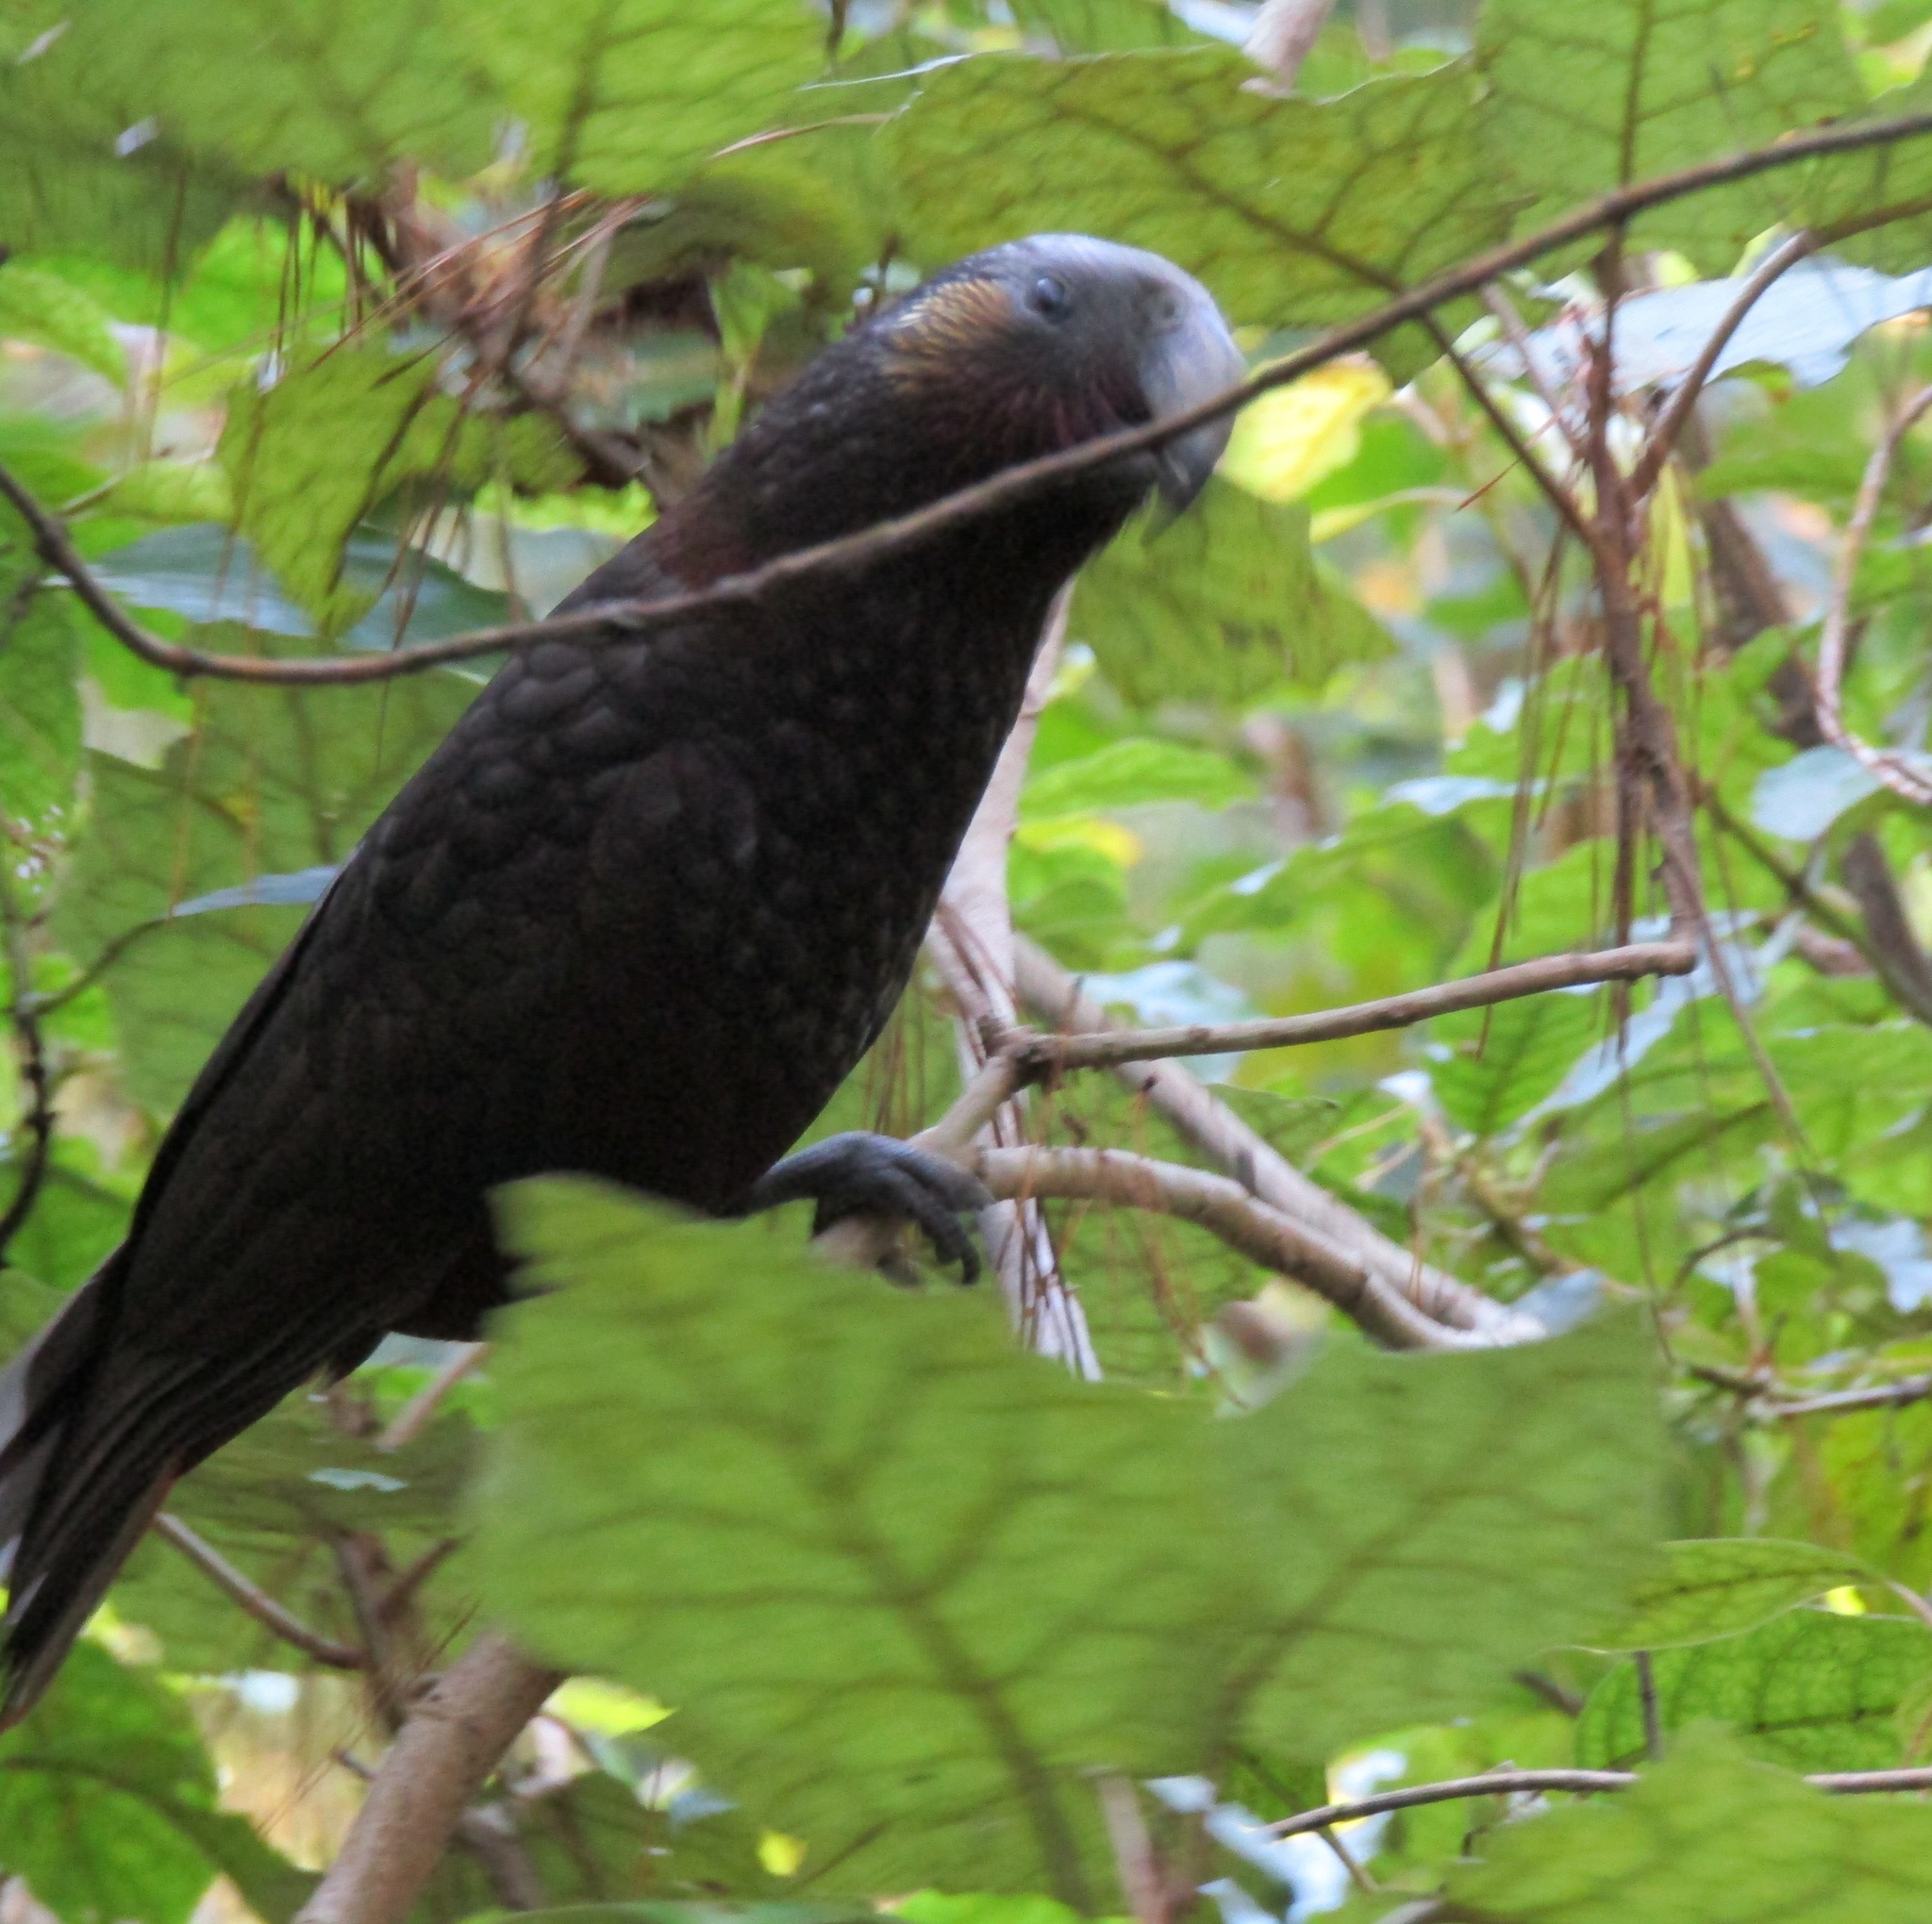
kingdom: Animalia
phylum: Chordata
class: Aves
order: Psittaciformes
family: Psittacidae
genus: Nestor
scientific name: Nestor meridionalis
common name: New zealand kaka
